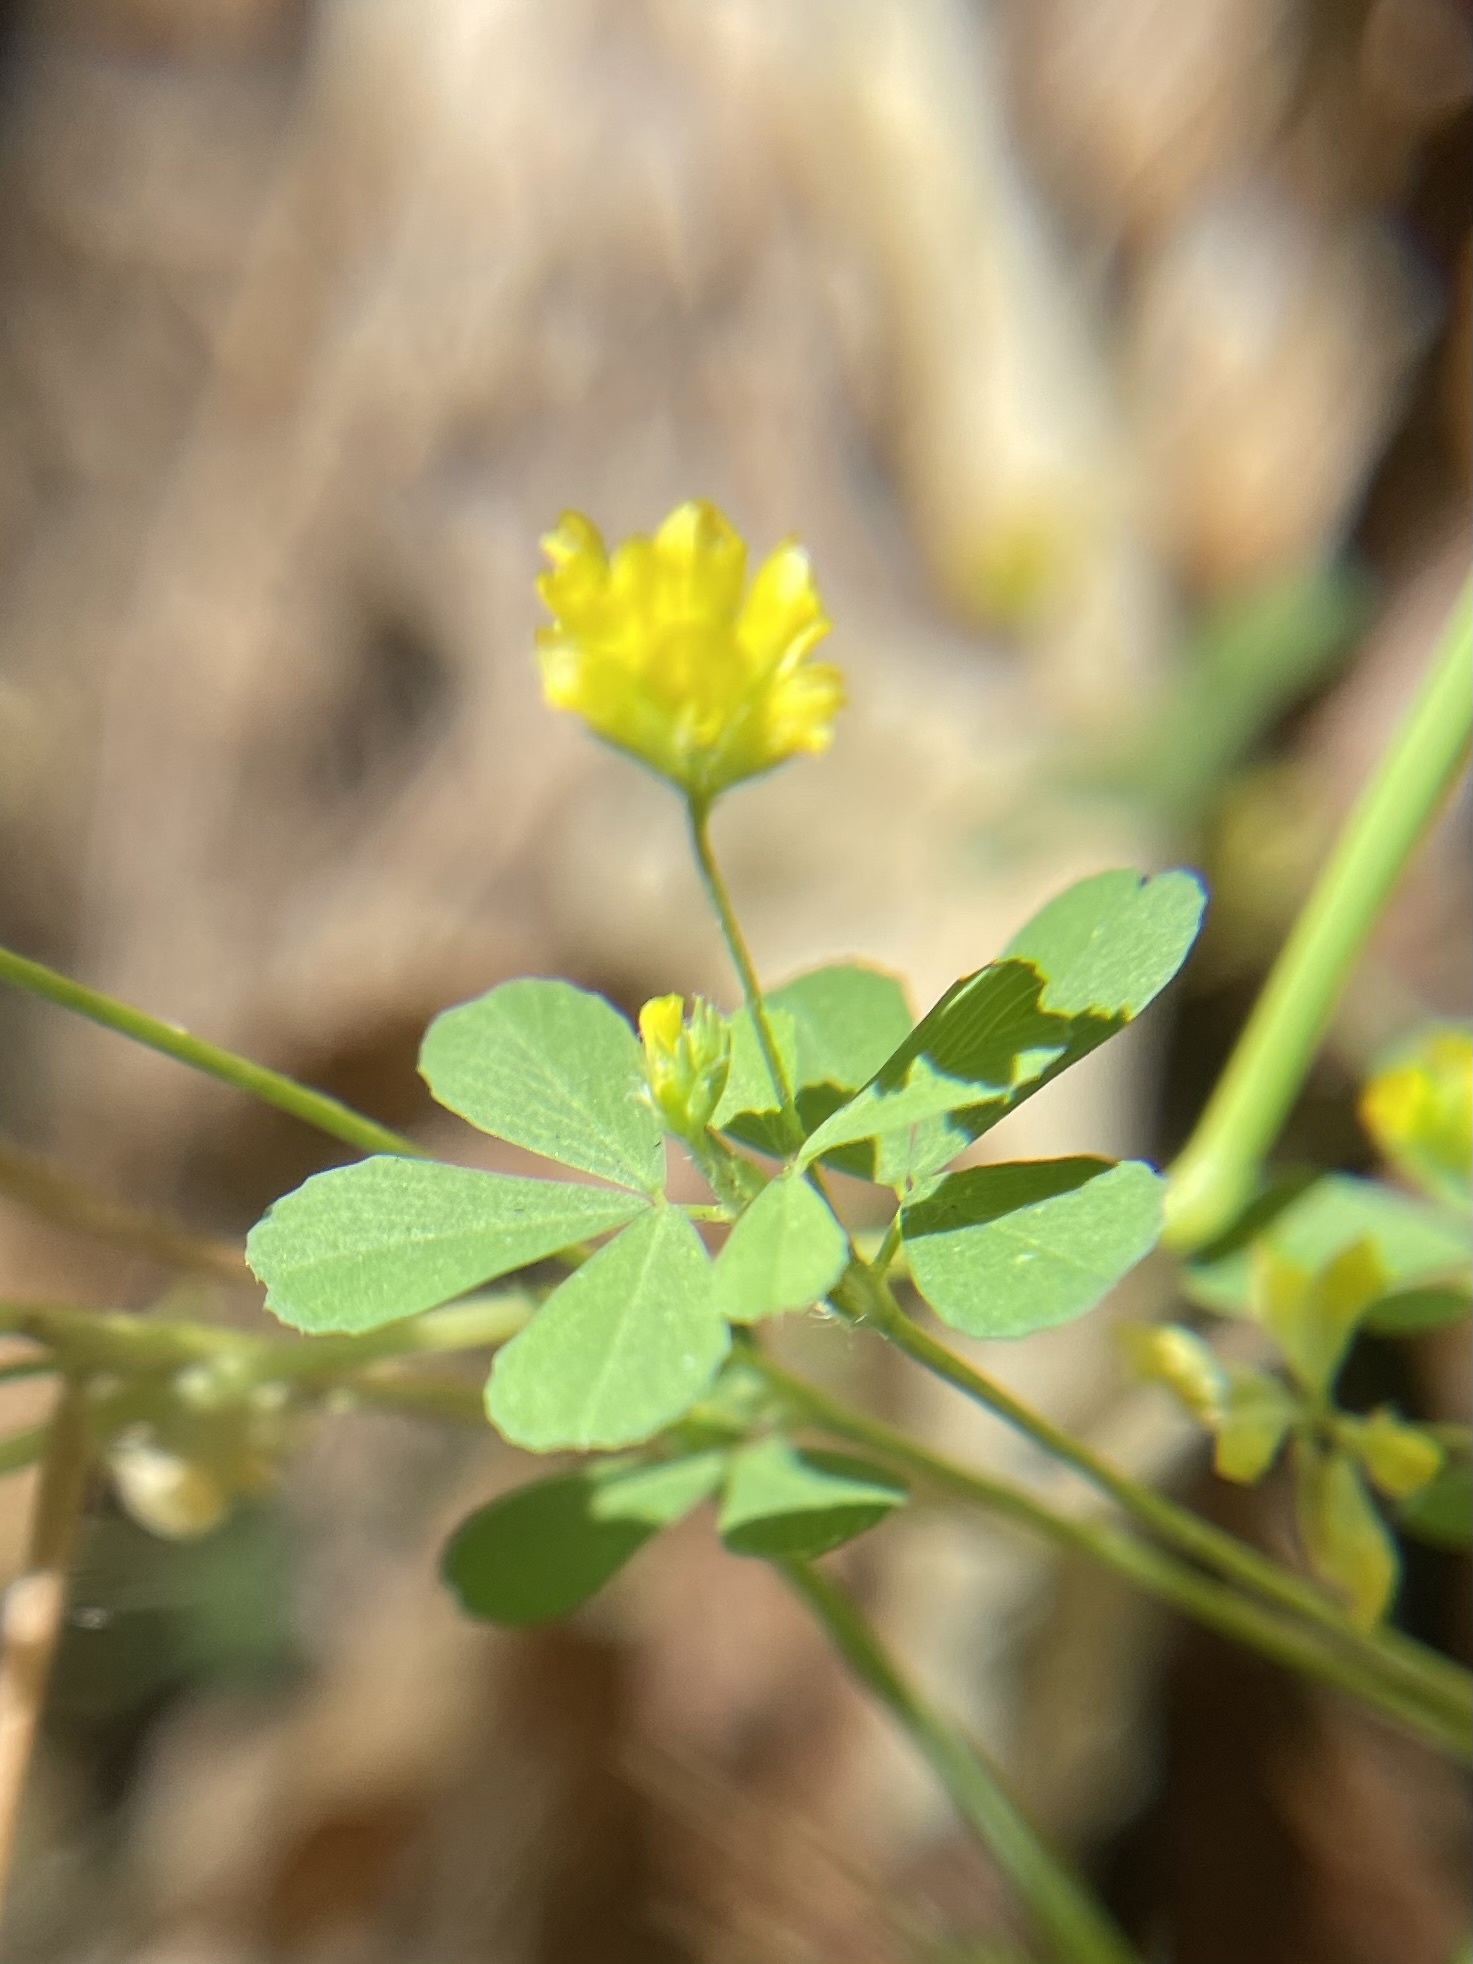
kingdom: Plantae
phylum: Tracheophyta
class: Magnoliopsida
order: Fabales
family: Fabaceae
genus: Trifolium
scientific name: Trifolium dubium
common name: Suckling clover
